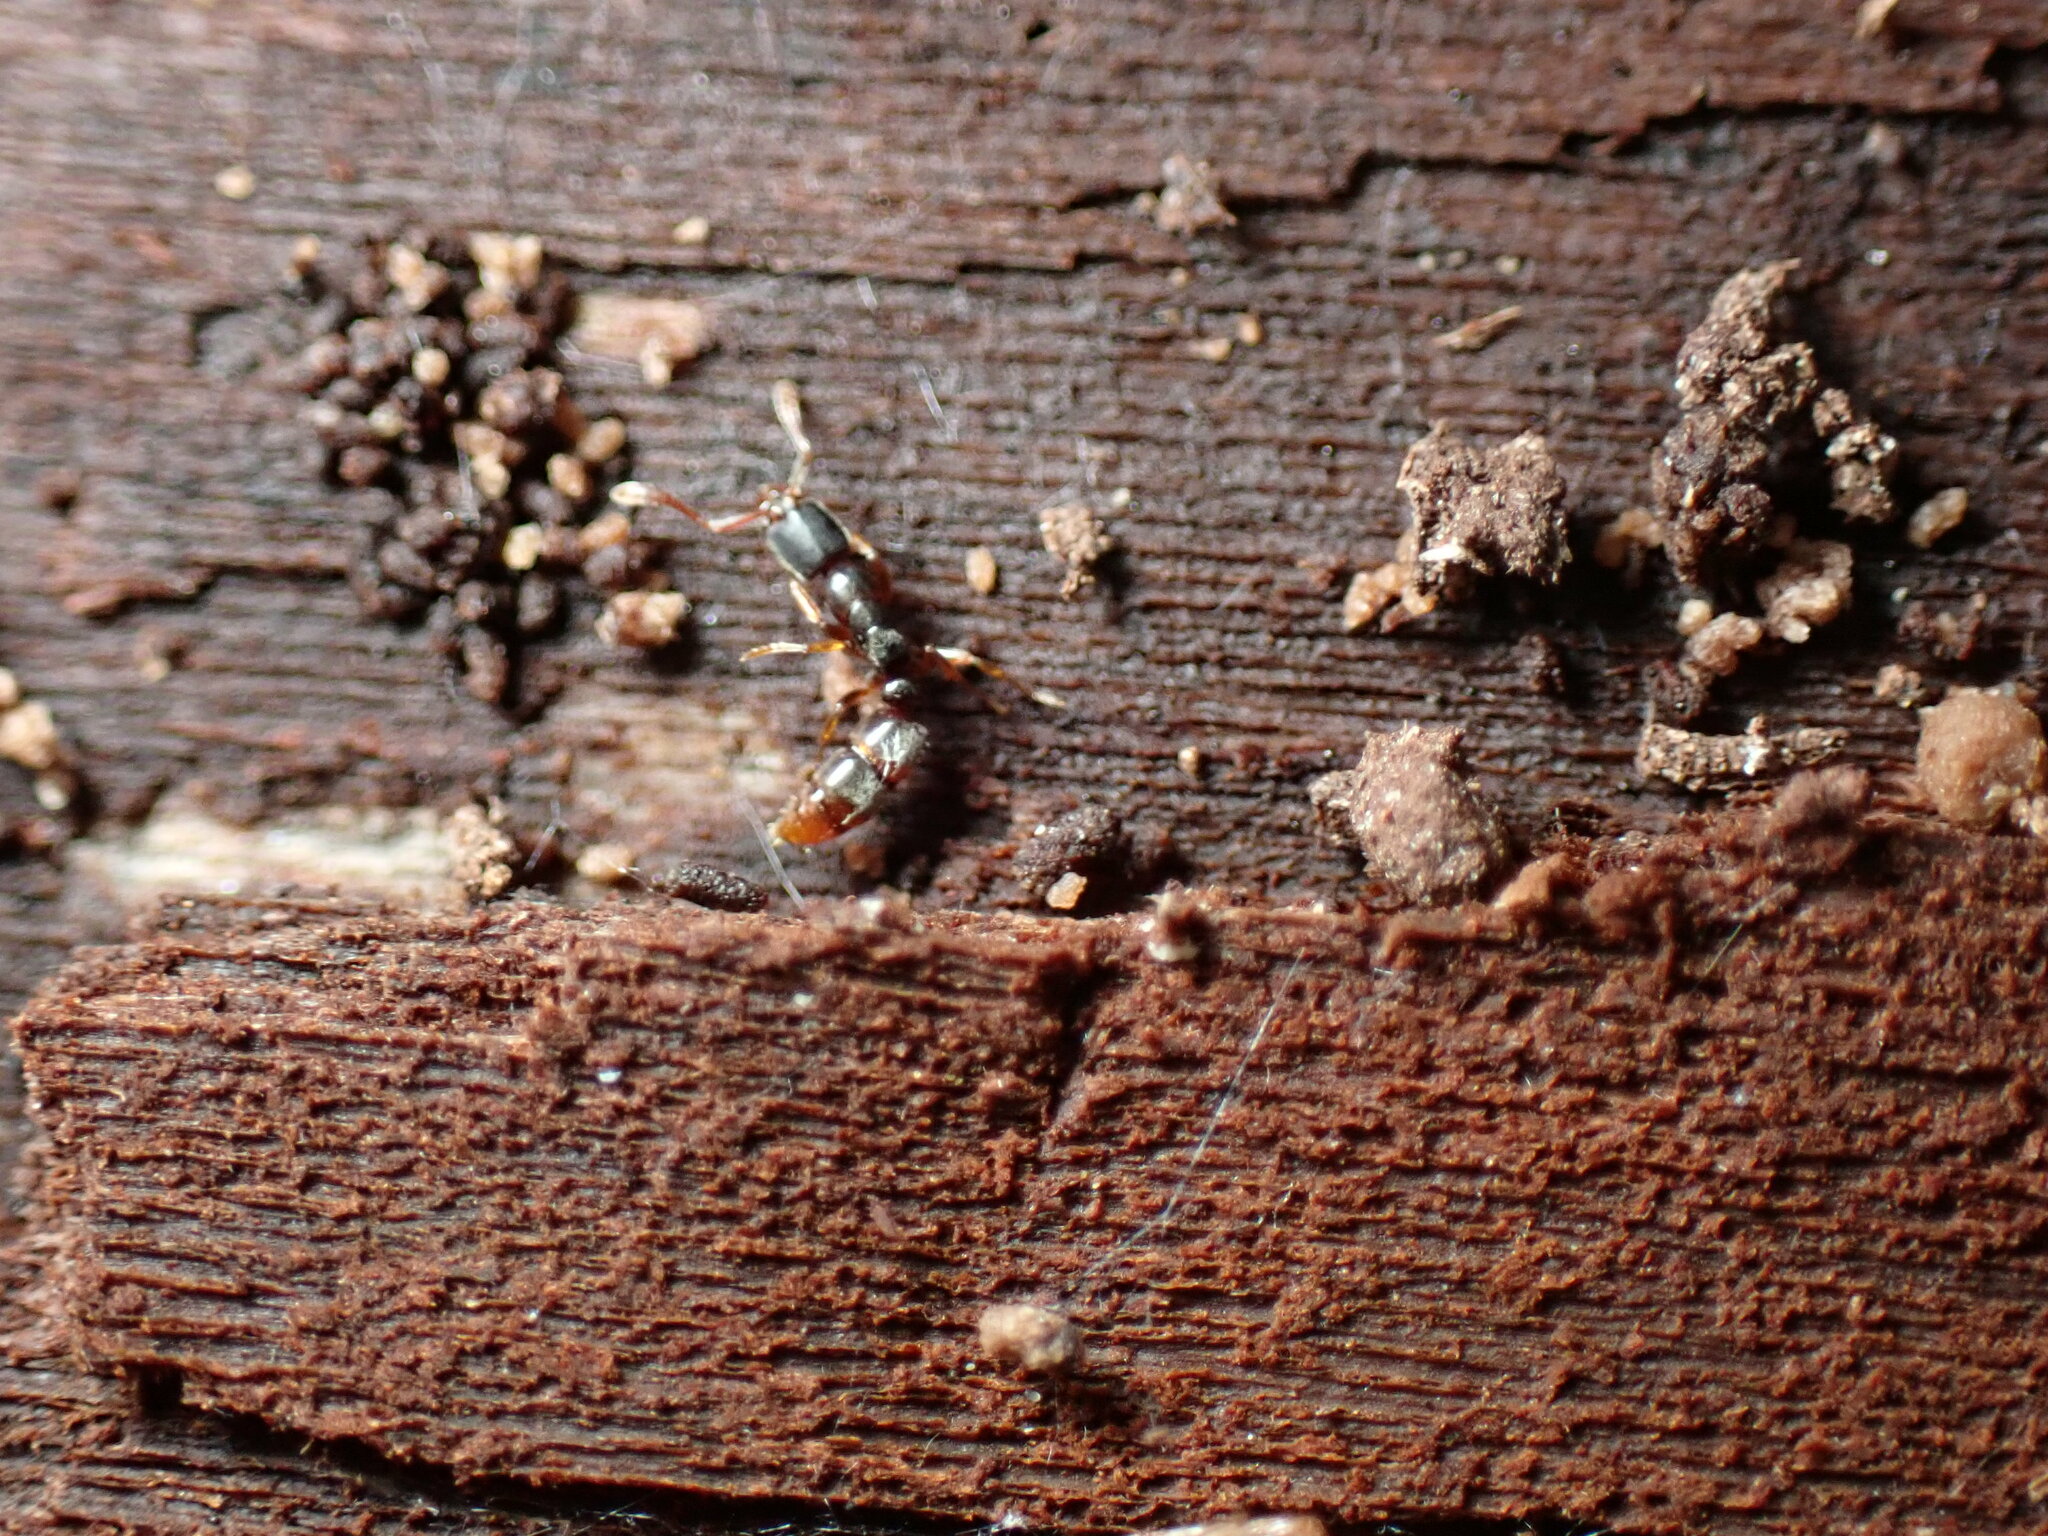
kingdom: Animalia
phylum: Arthropoda
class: Insecta
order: Hymenoptera
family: Formicidae
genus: Ponera
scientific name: Ponera pennsylvanica
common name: Pennsylvania ponera
